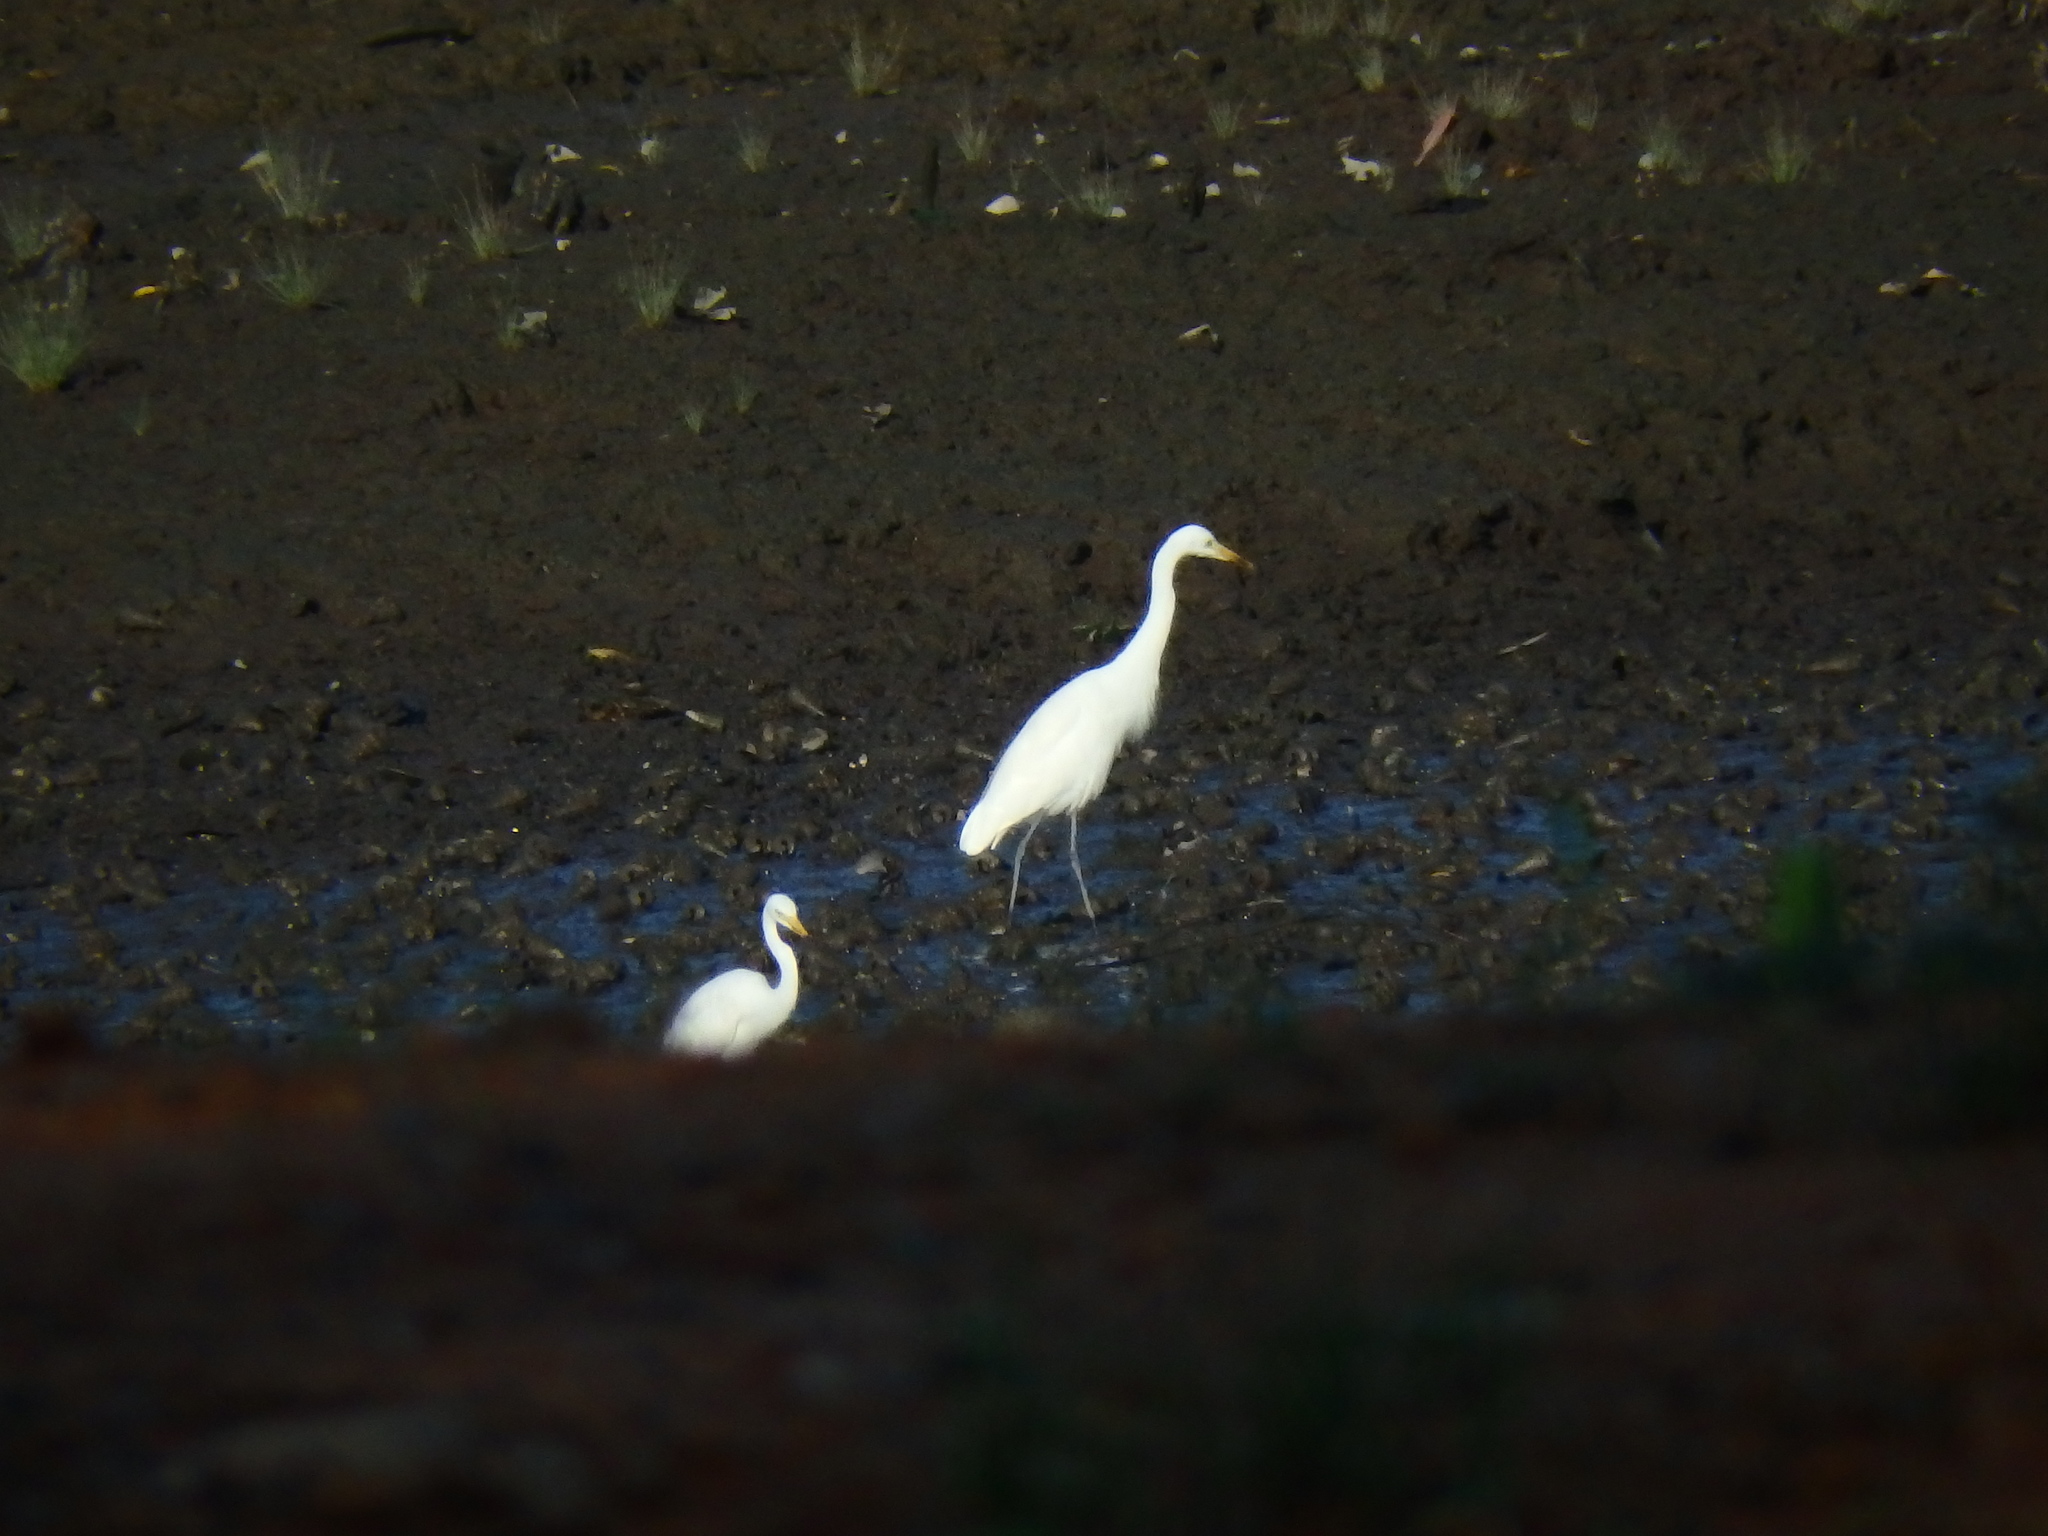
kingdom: Animalia
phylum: Chordata
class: Aves
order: Pelecaniformes
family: Ardeidae
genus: Egretta
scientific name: Egretta intermedia
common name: Intermediate egret
